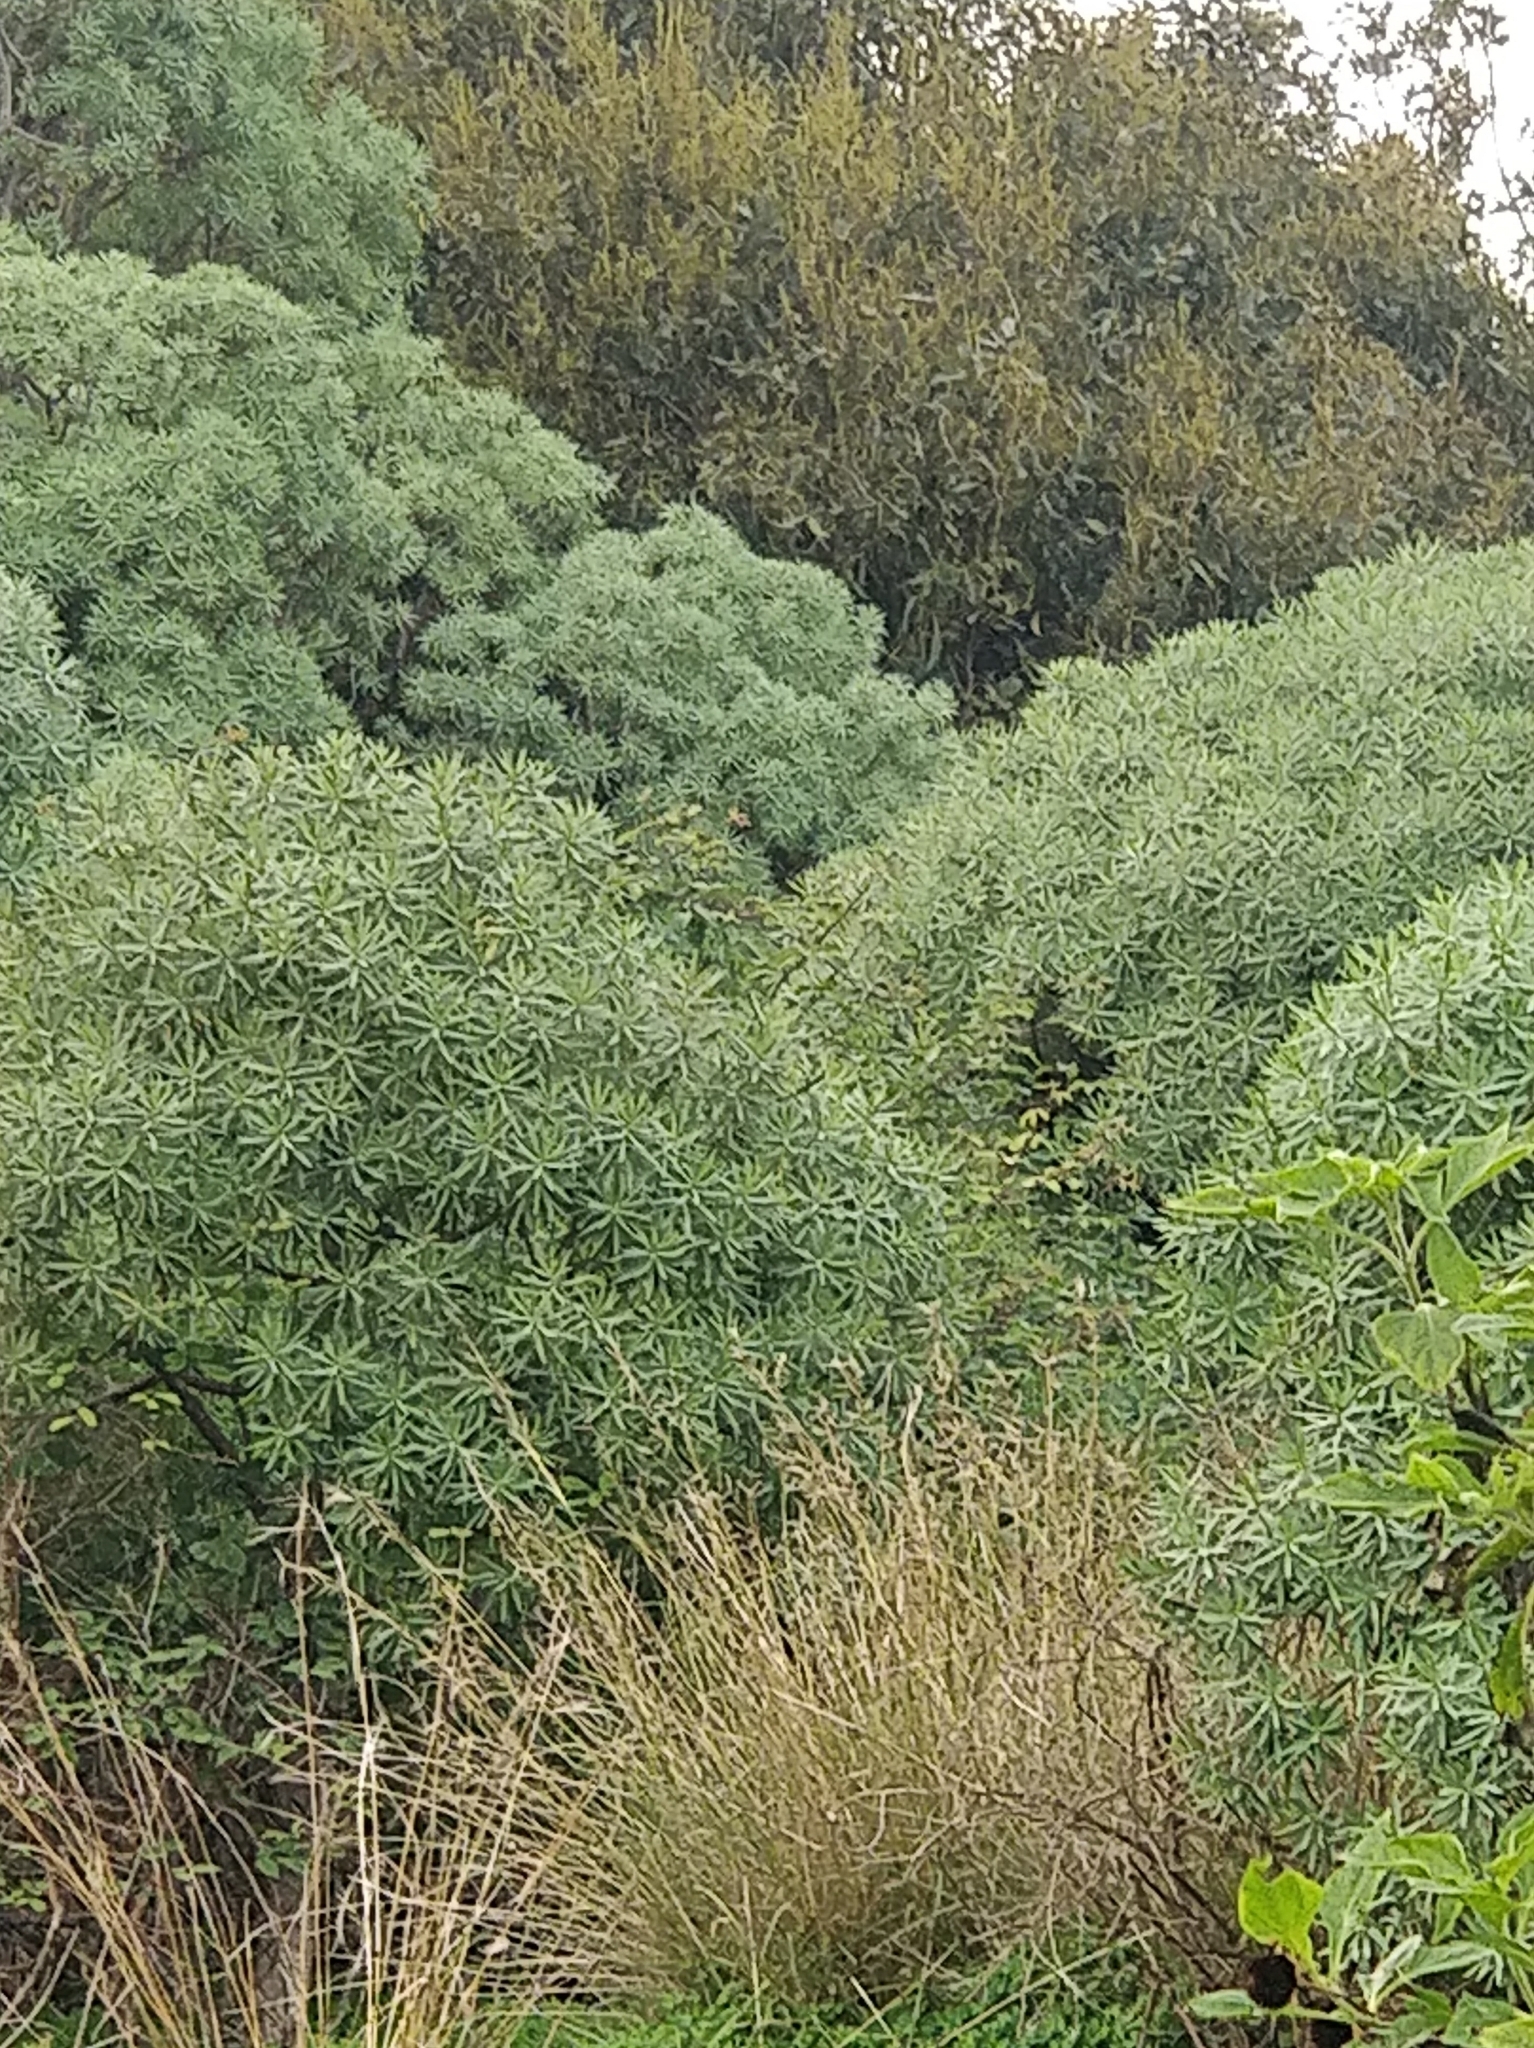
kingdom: Plantae
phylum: Tracheophyta
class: Magnoliopsida
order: Malpighiales
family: Euphorbiaceae
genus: Euphorbia
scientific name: Euphorbia piscatoria
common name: Fish-stunning spurge
